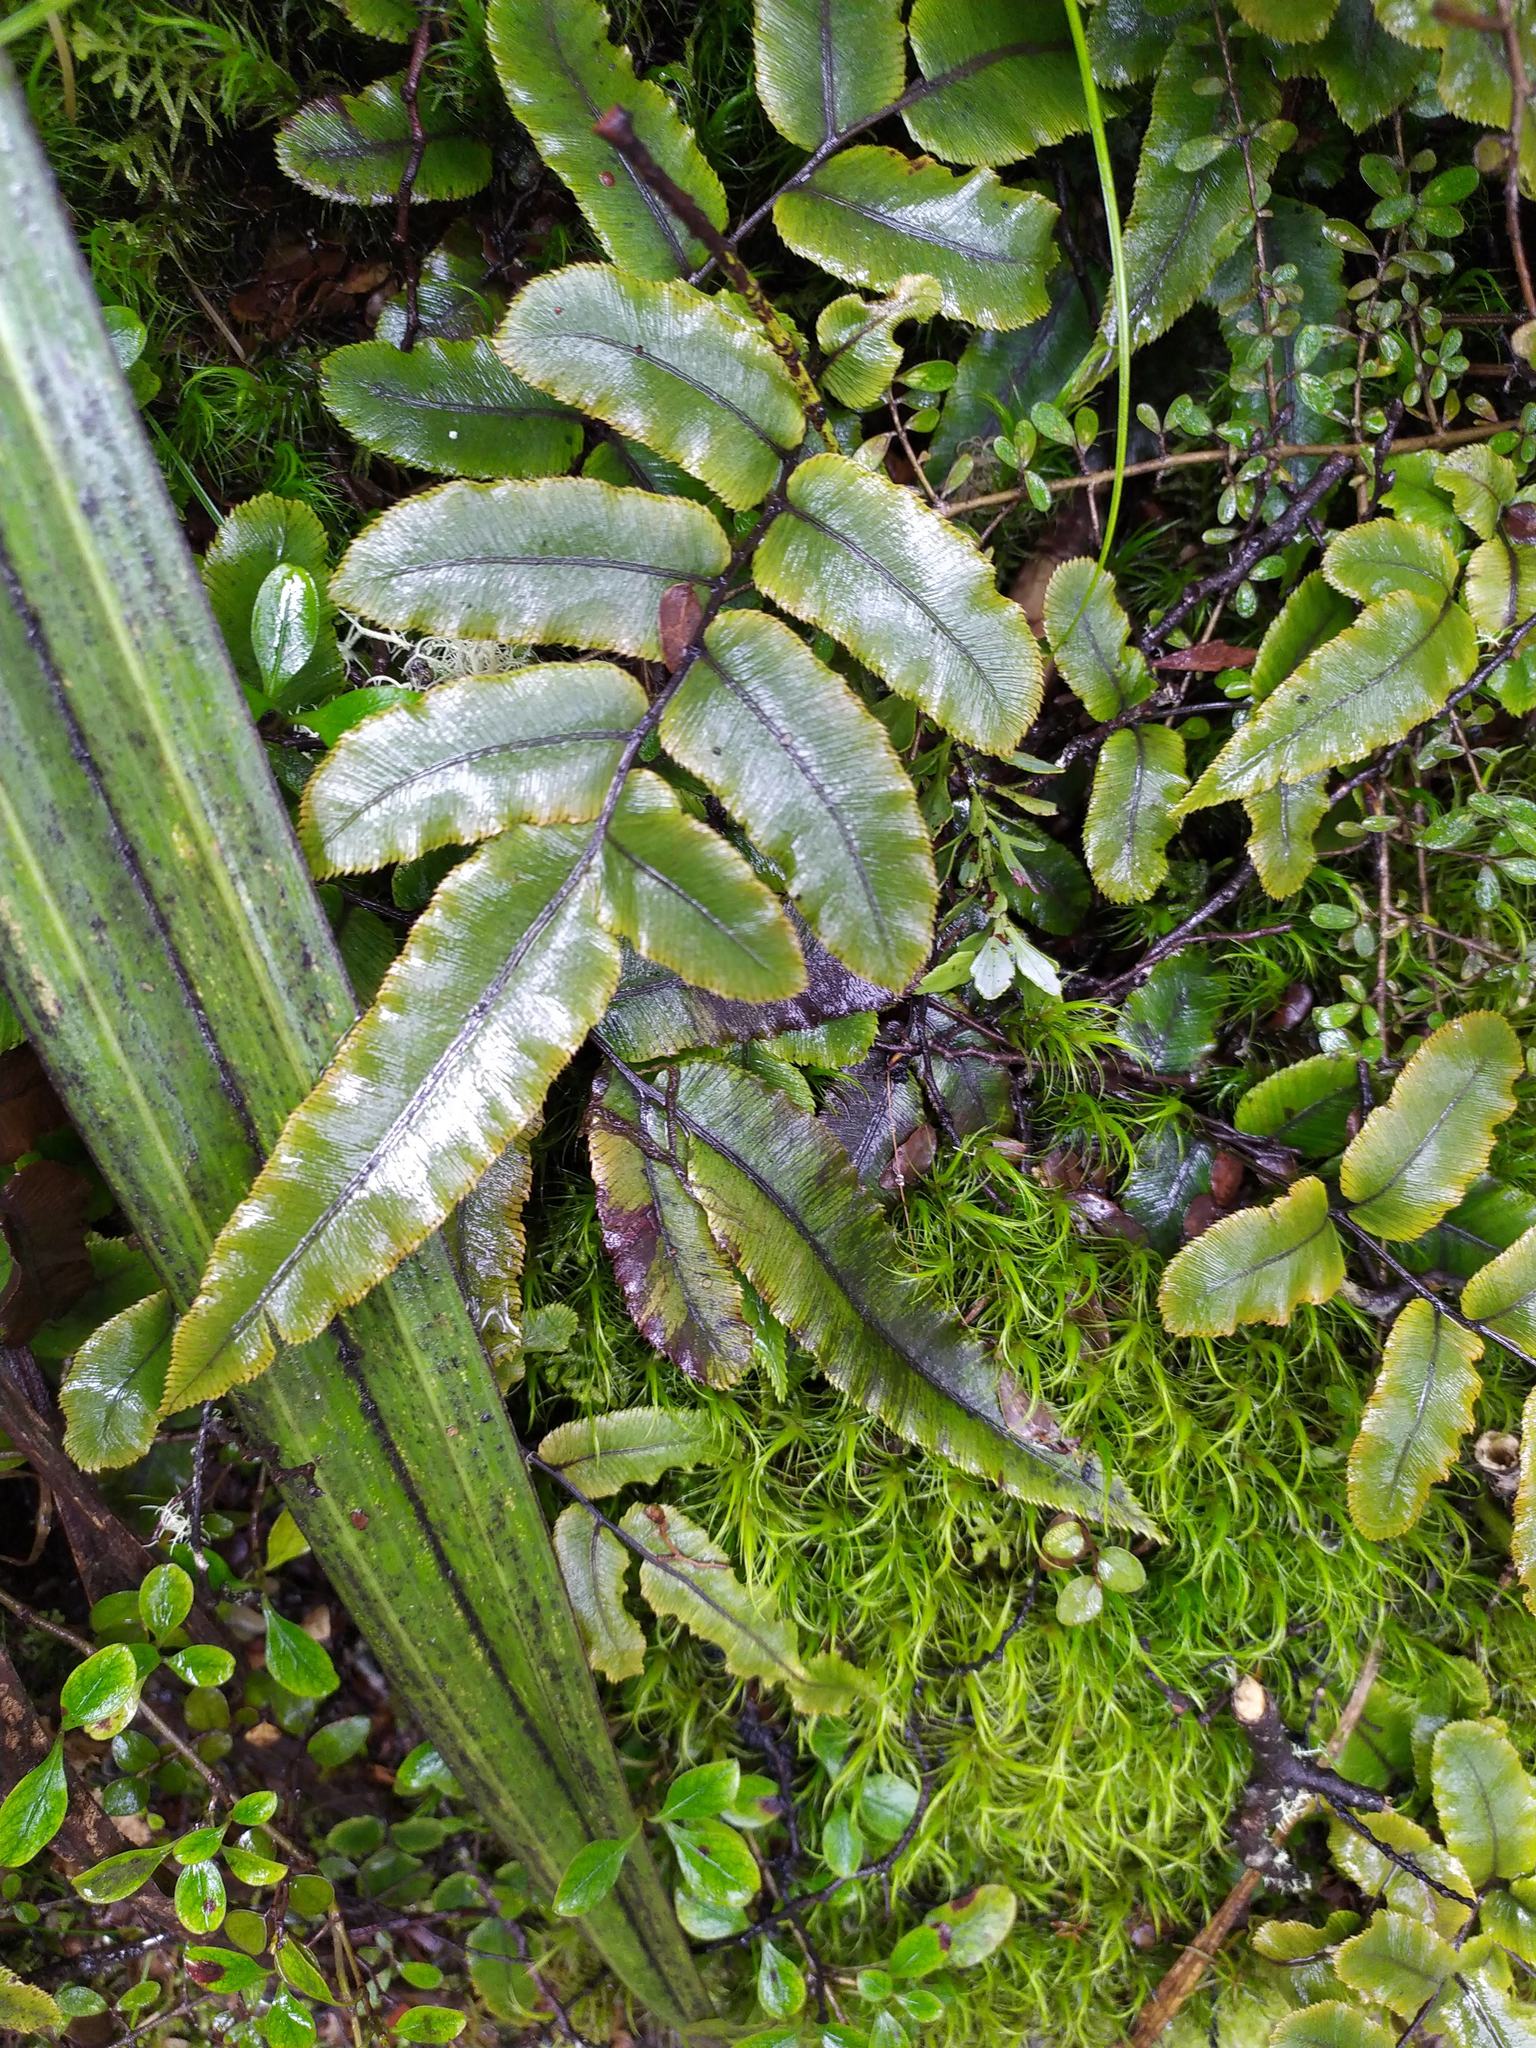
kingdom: Plantae
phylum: Tracheophyta
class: Polypodiopsida
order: Polypodiales
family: Blechnaceae
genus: Parablechnum
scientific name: Parablechnum procerum
